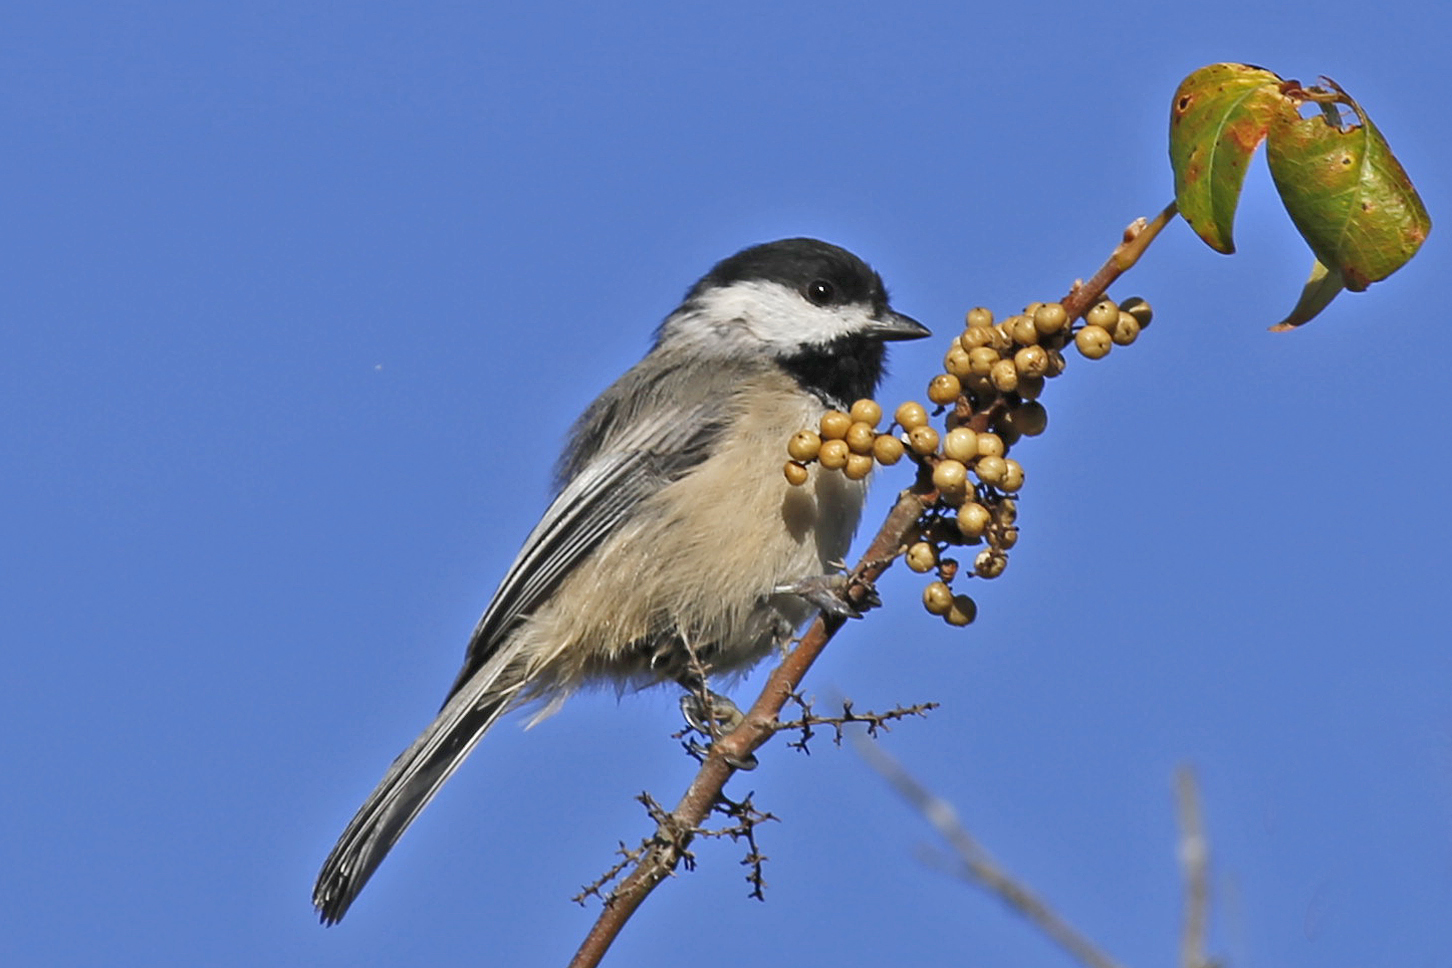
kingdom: Animalia
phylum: Chordata
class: Aves
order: Passeriformes
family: Paridae
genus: Poecile
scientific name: Poecile carolinensis
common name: Carolina chickadee
